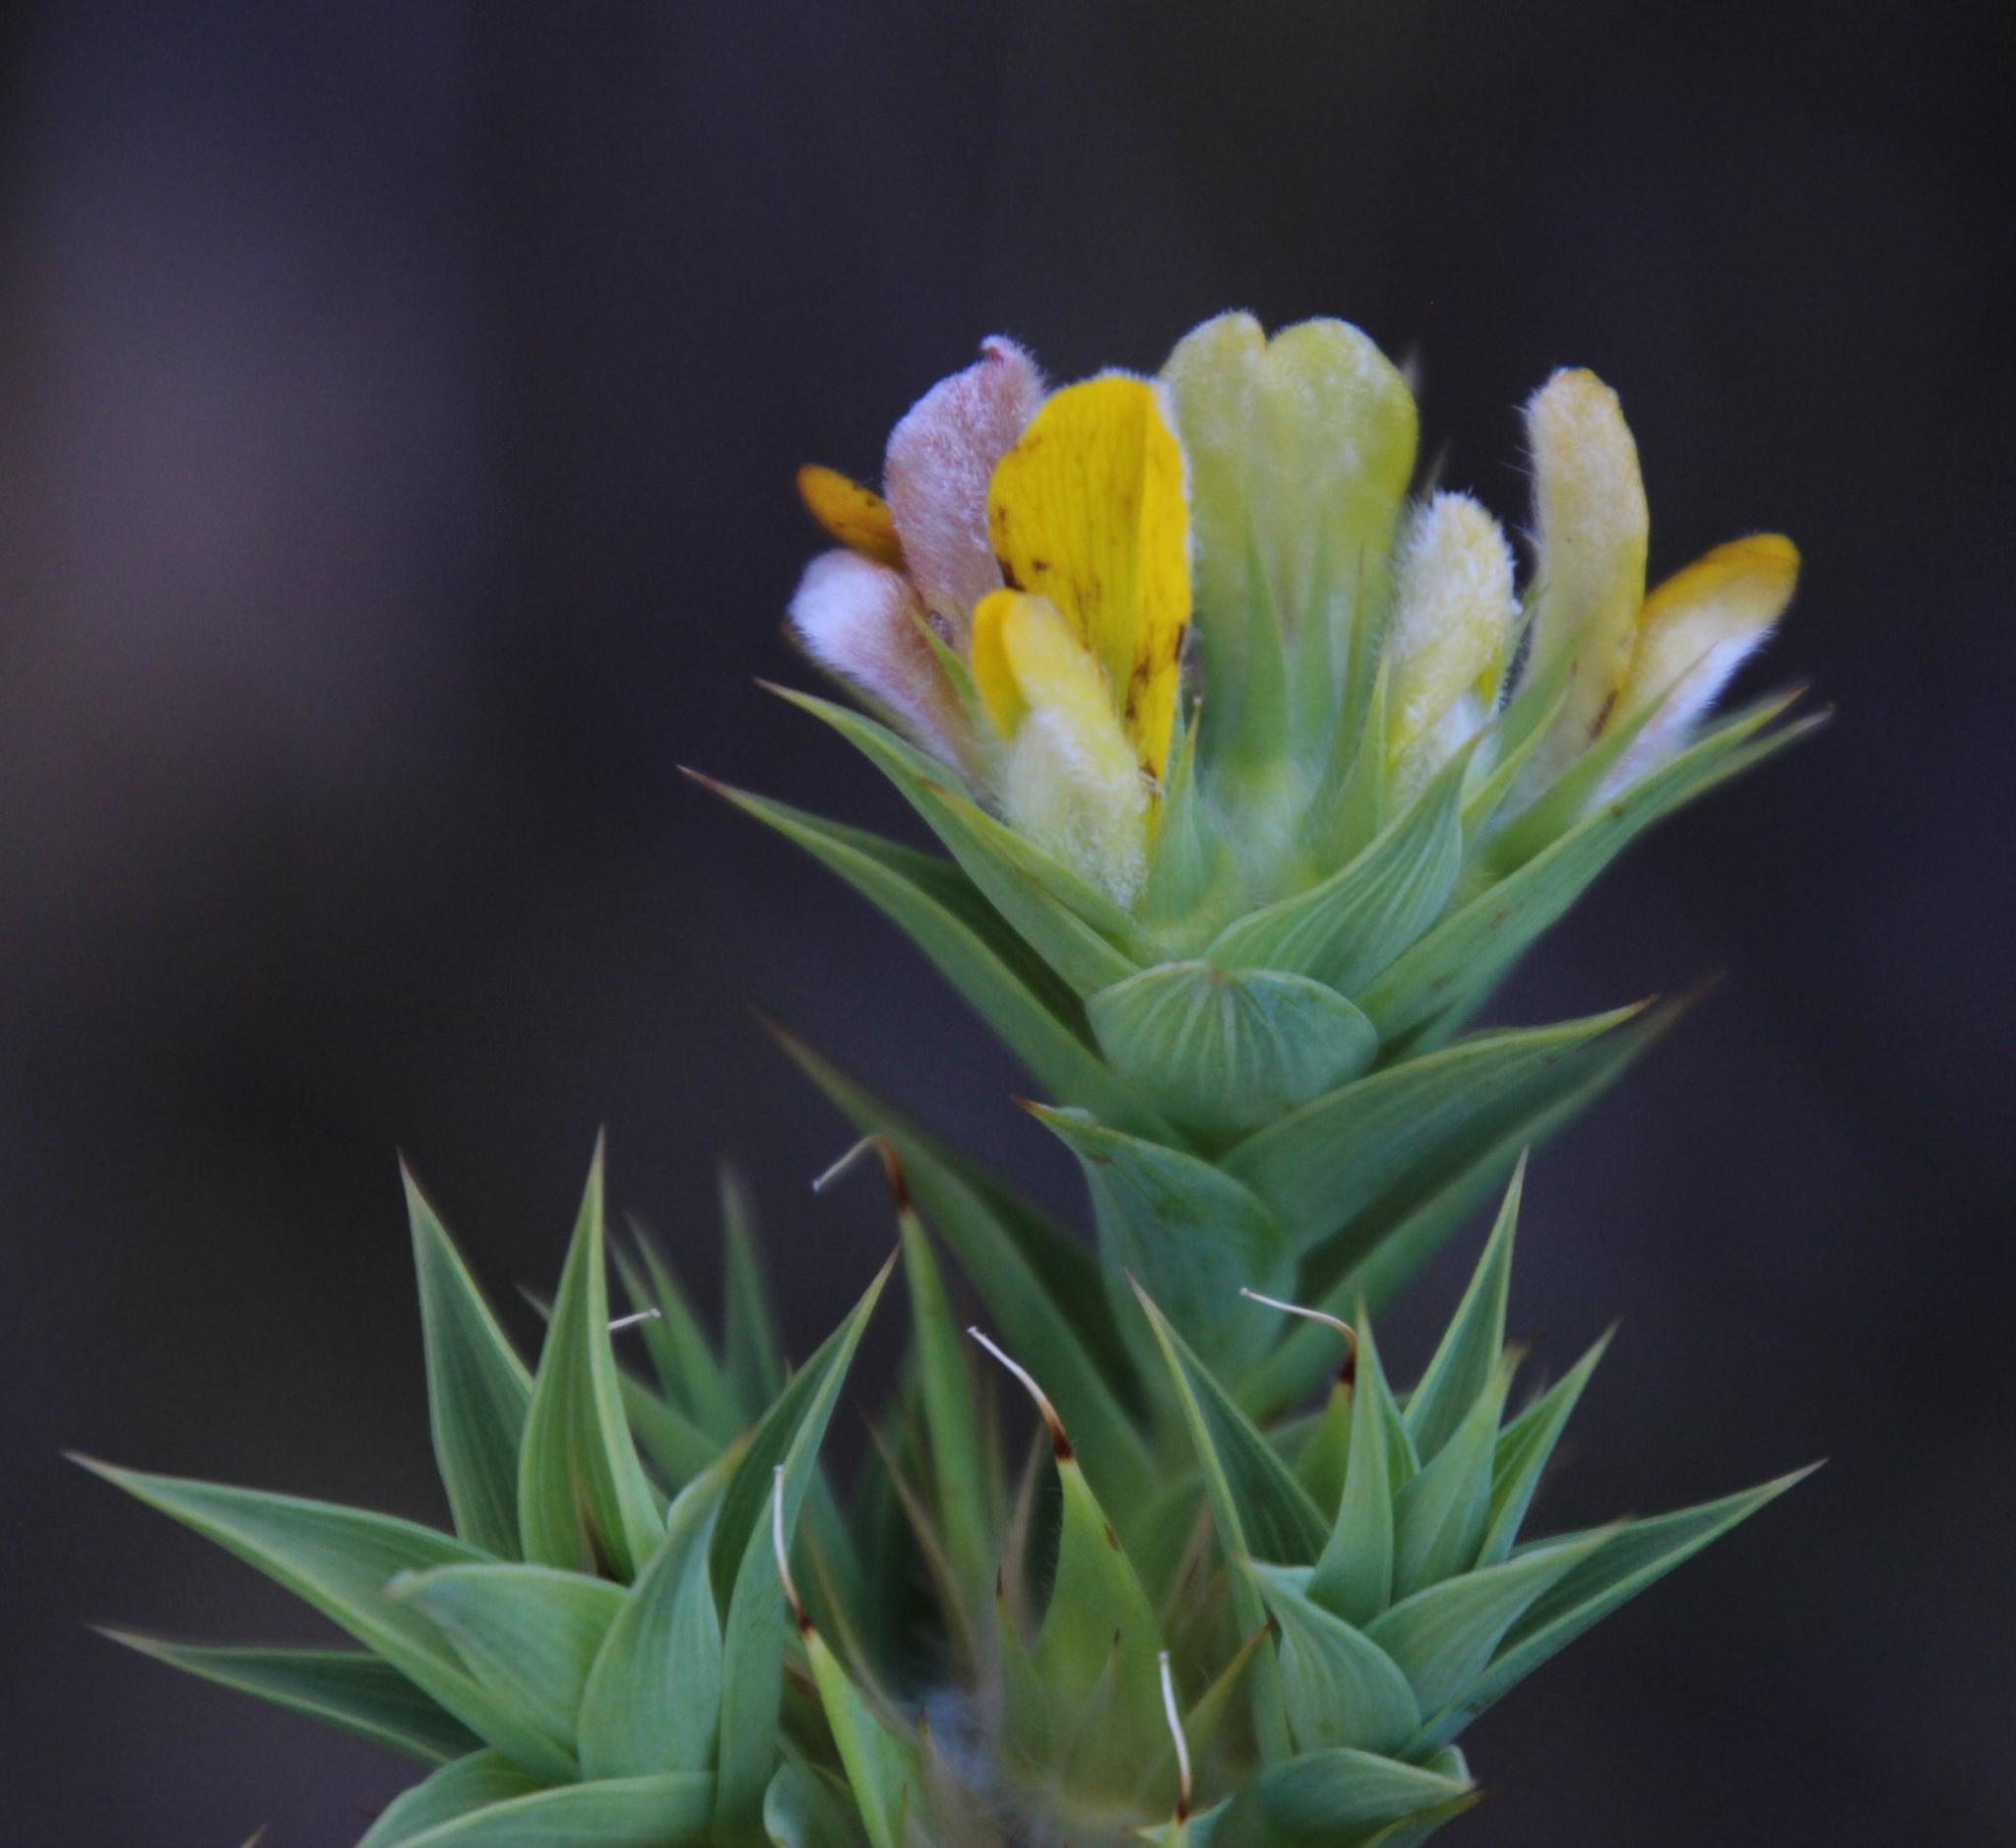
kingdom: Plantae
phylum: Tracheophyta
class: Magnoliopsida
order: Fabales
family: Fabaceae
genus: Aspalathus
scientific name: Aspalathus cordata
